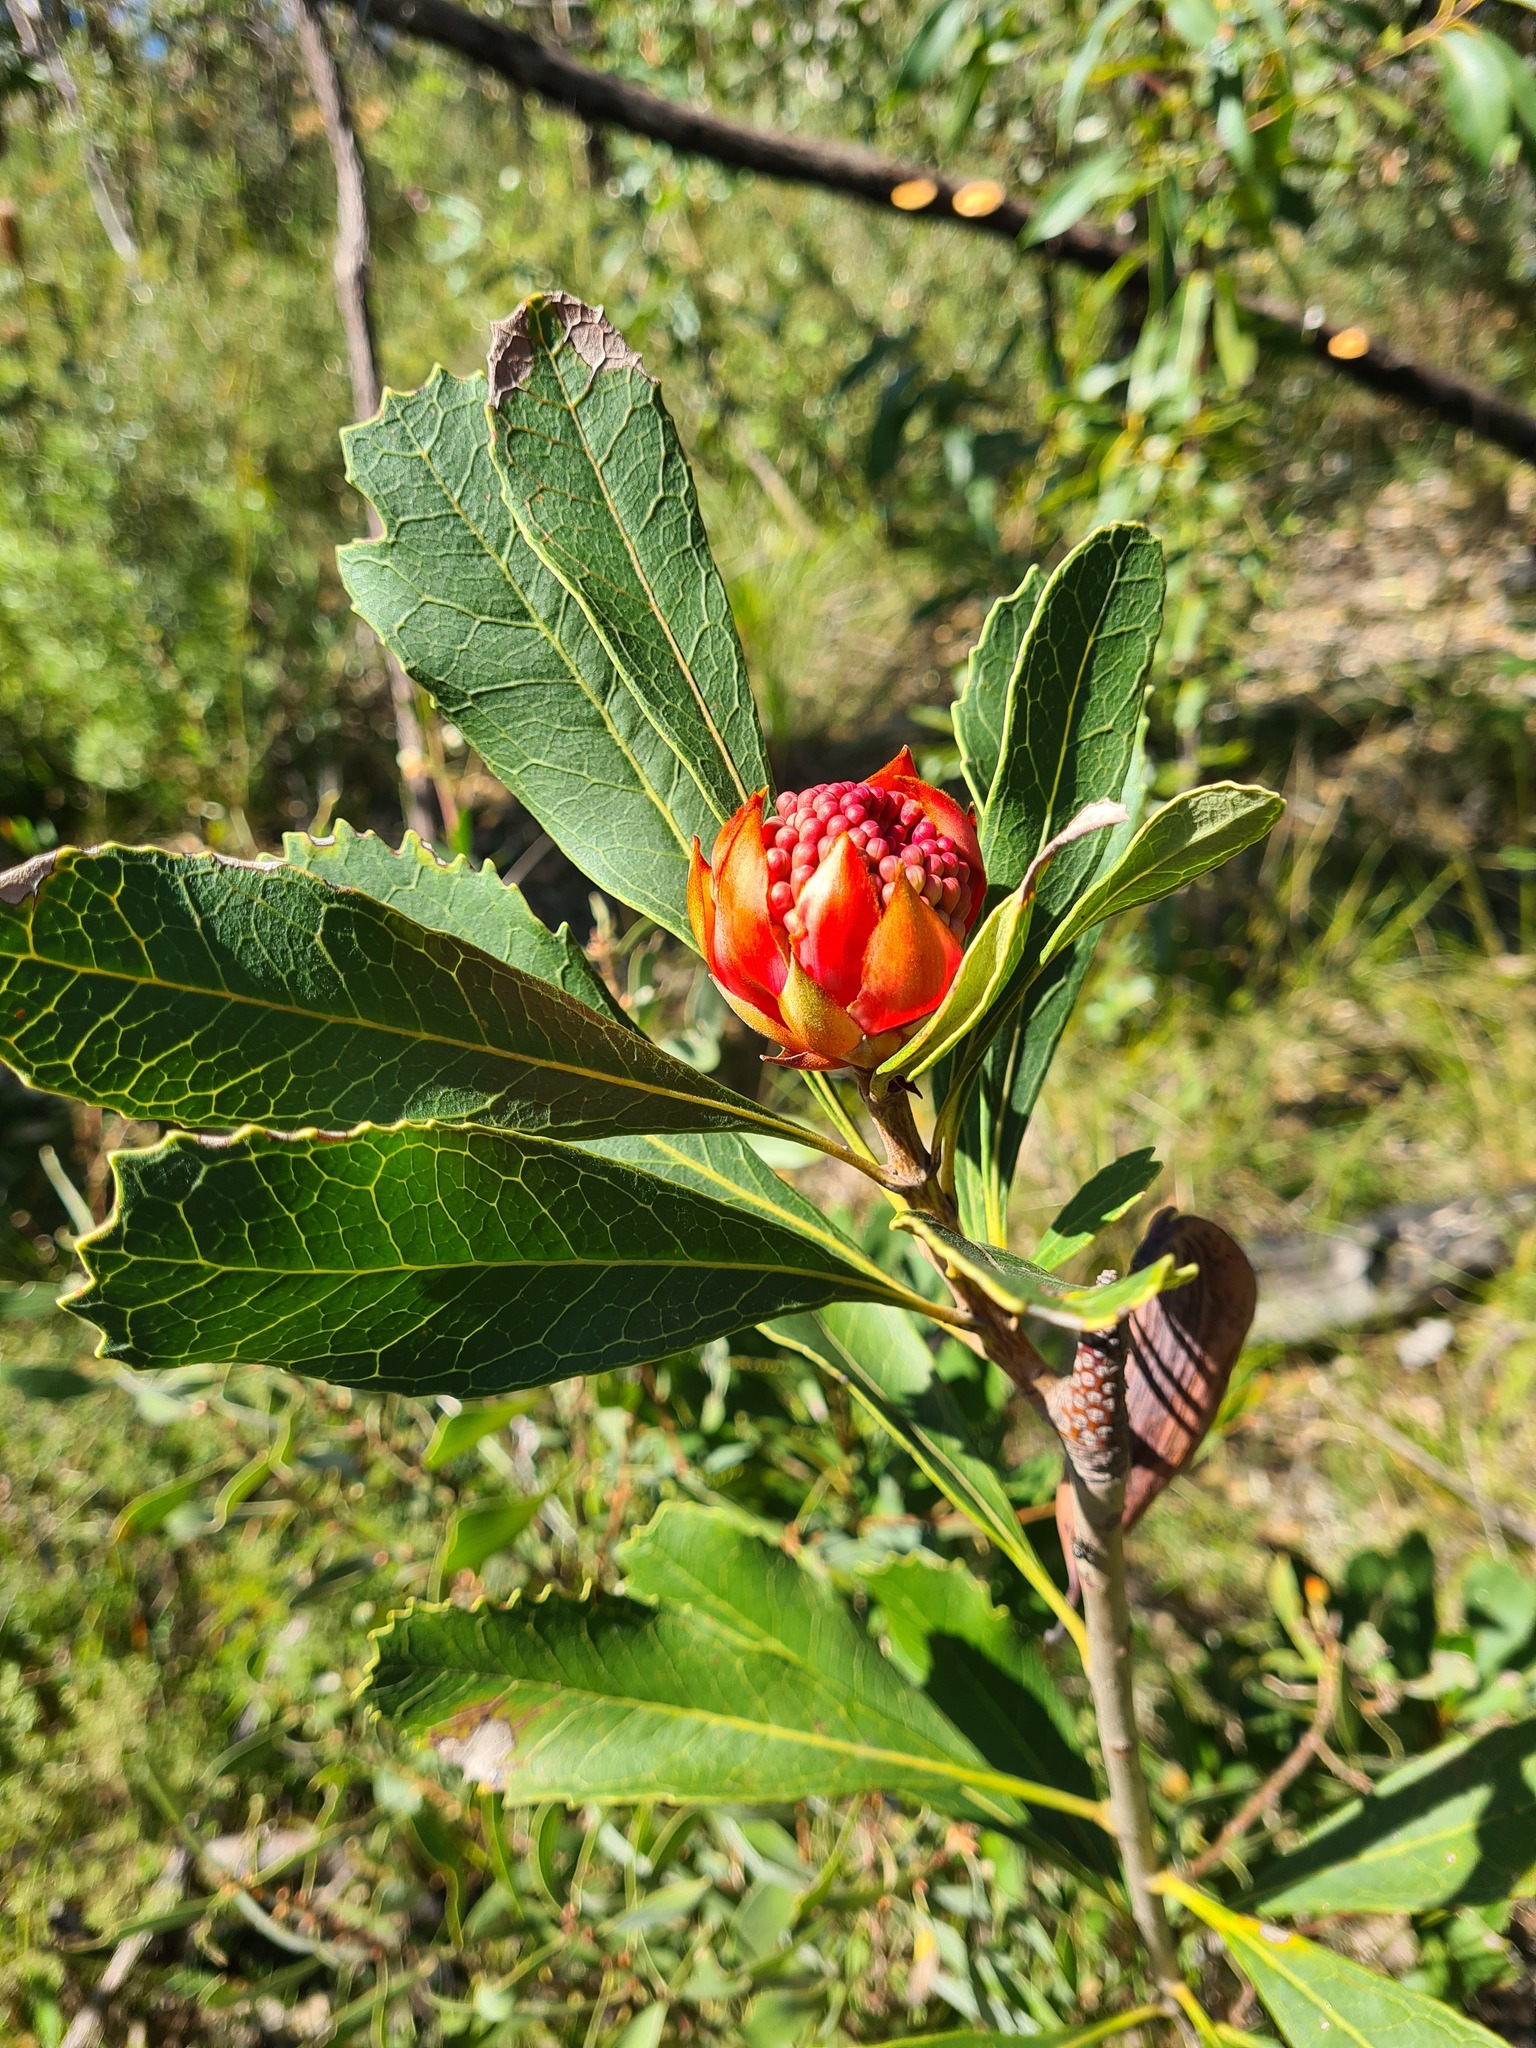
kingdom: Plantae
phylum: Tracheophyta
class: Magnoliopsida
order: Proteales
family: Proteaceae
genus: Telopea
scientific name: Telopea speciosissima
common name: New south wales waratah
